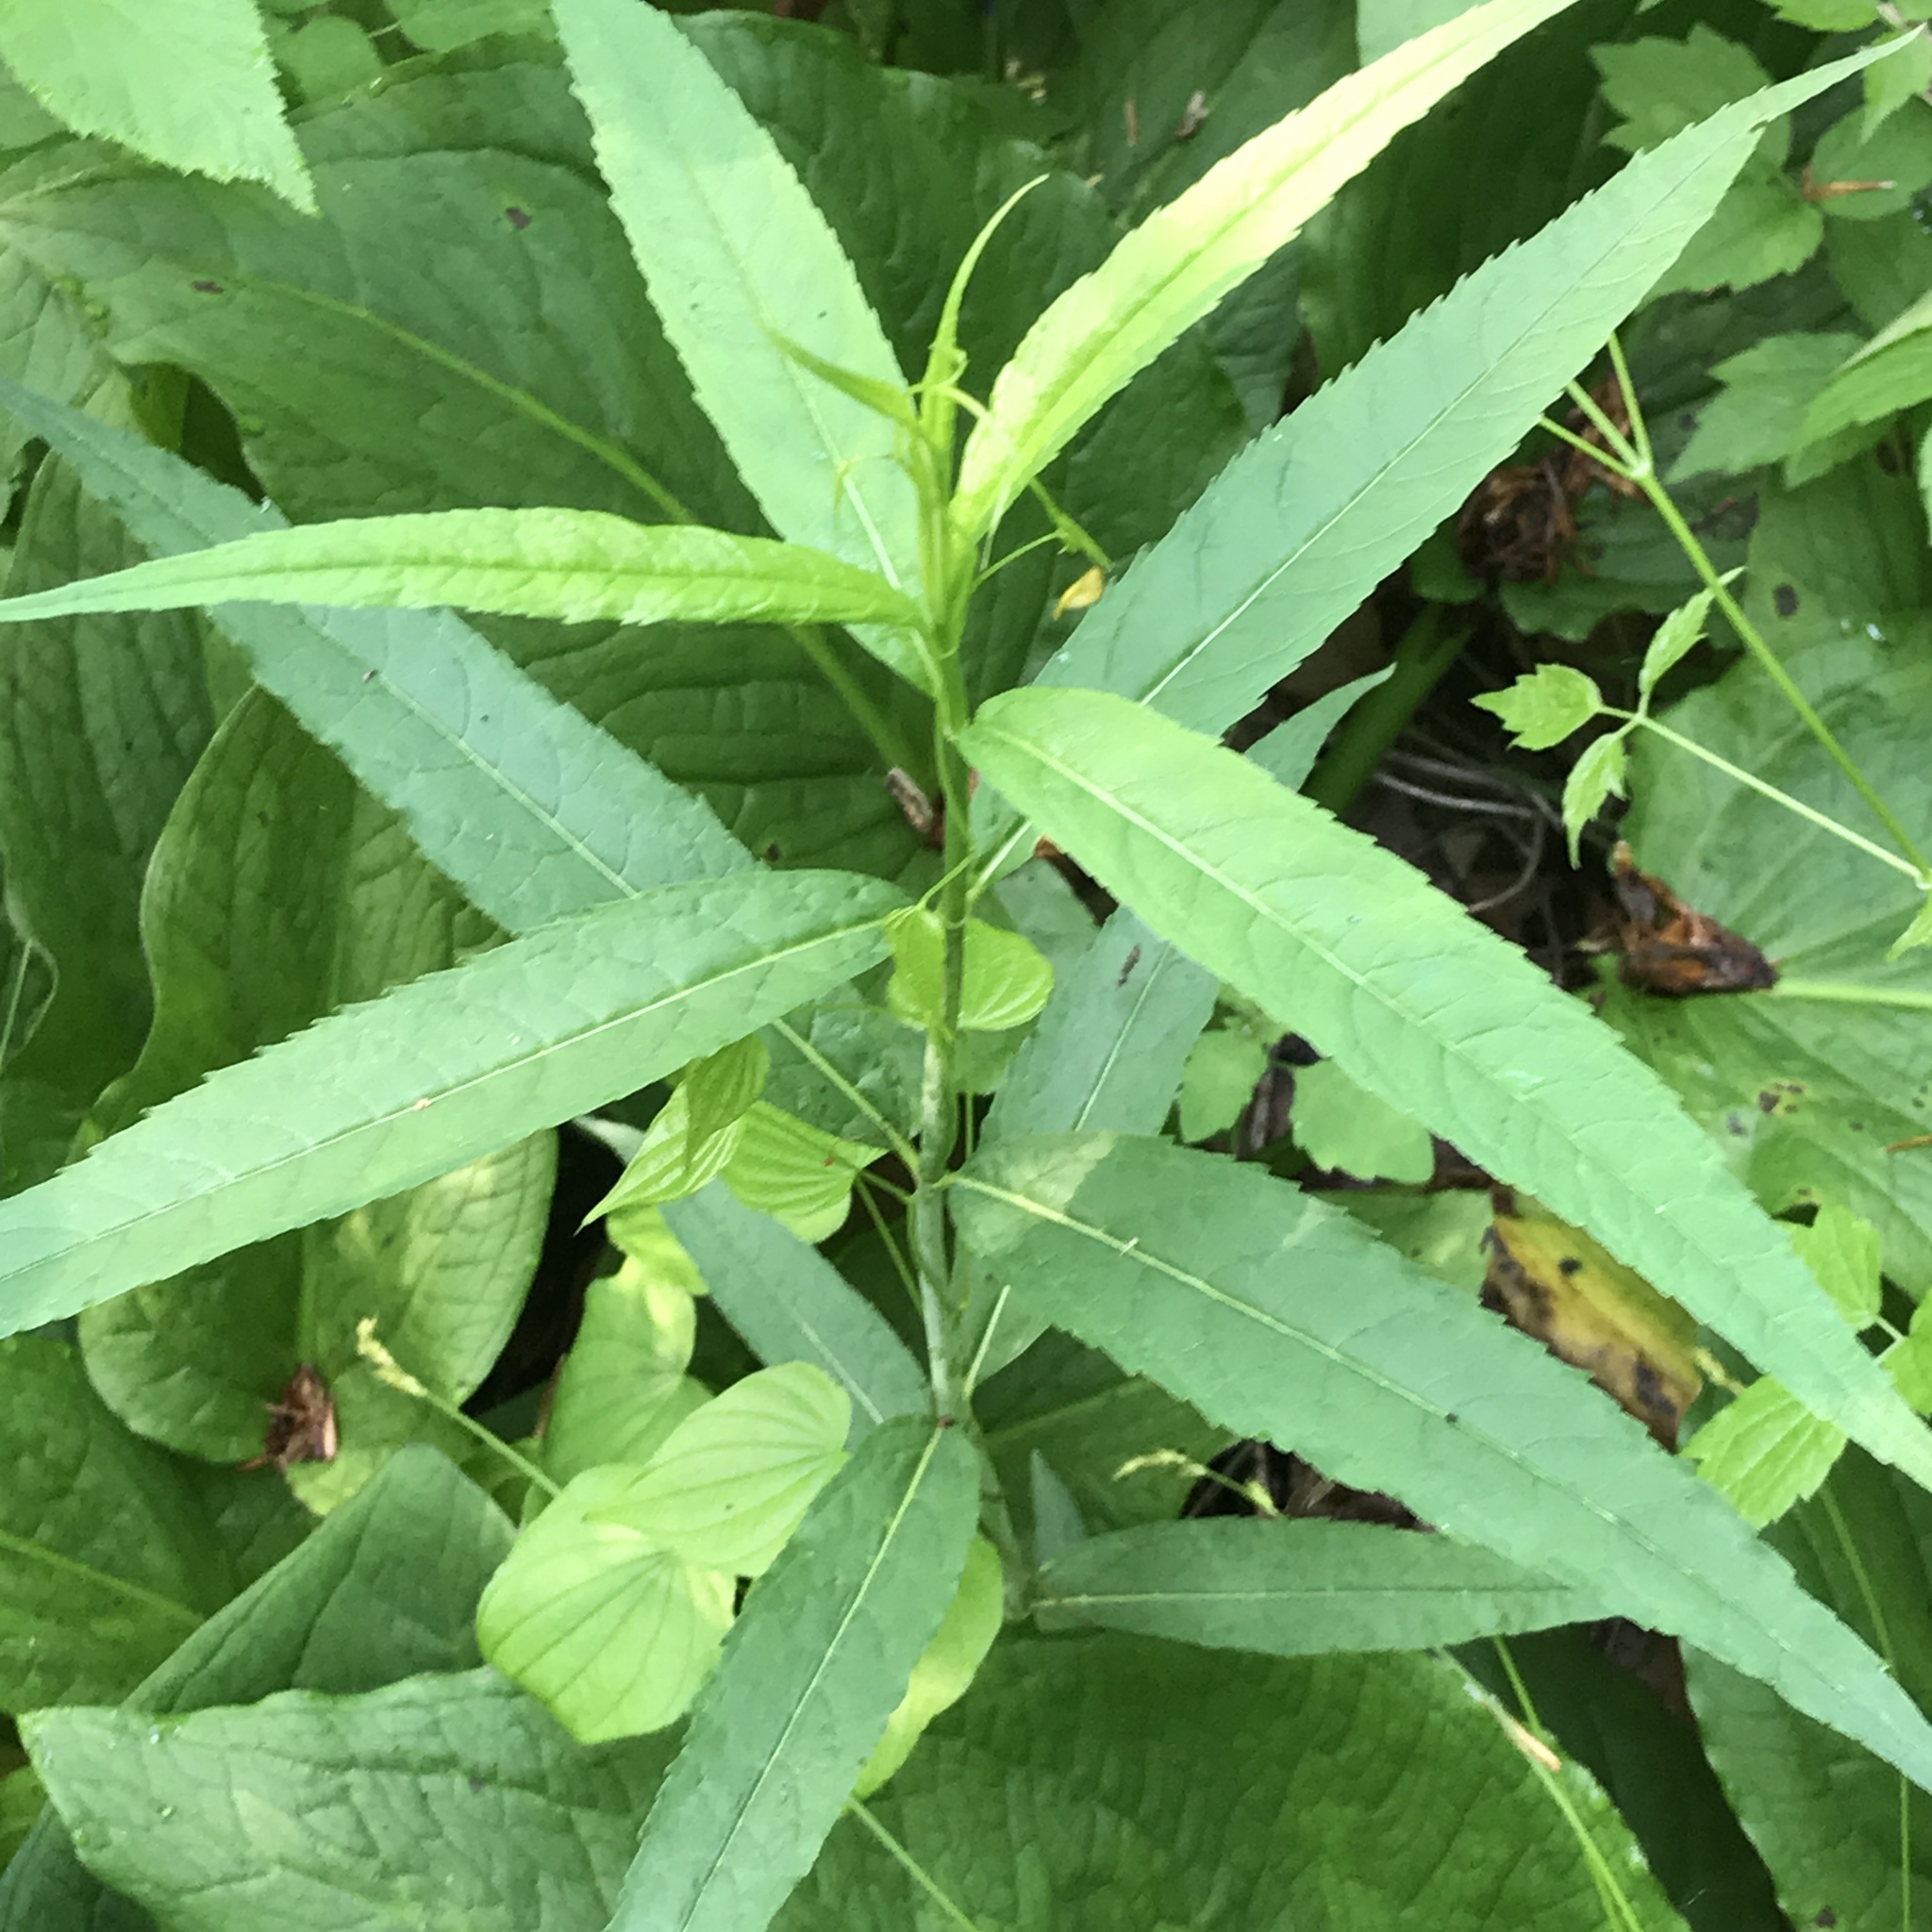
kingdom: Plantae
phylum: Tracheophyta
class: Liliopsida
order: Dioscoreales
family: Dioscoreaceae
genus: Dioscorea
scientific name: Dioscorea villosa
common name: Wild yam
